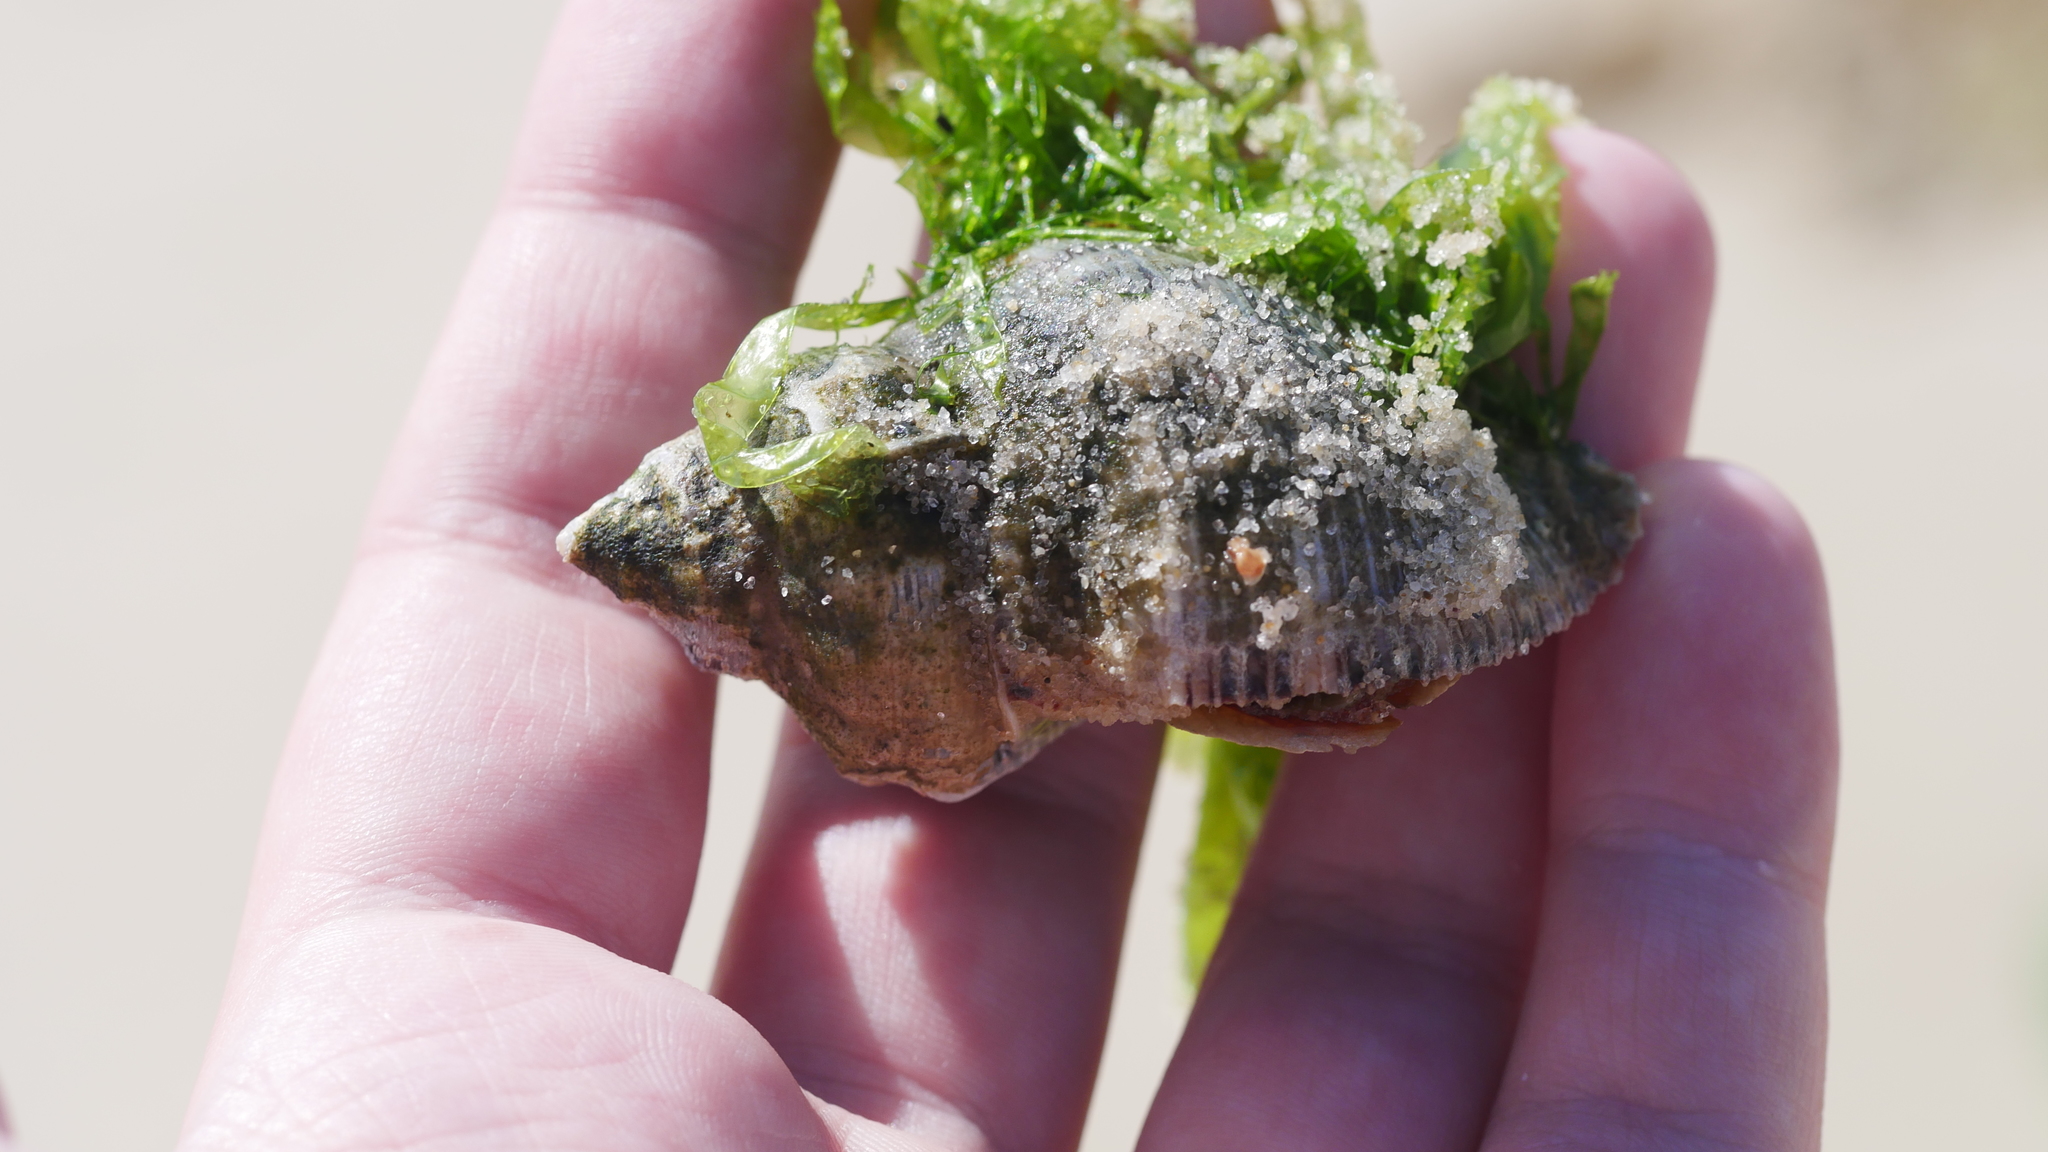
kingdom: Animalia
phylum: Mollusca
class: Gastropoda
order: Neogastropoda
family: Muricidae
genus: Stramonita
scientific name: Stramonita canaliculata
